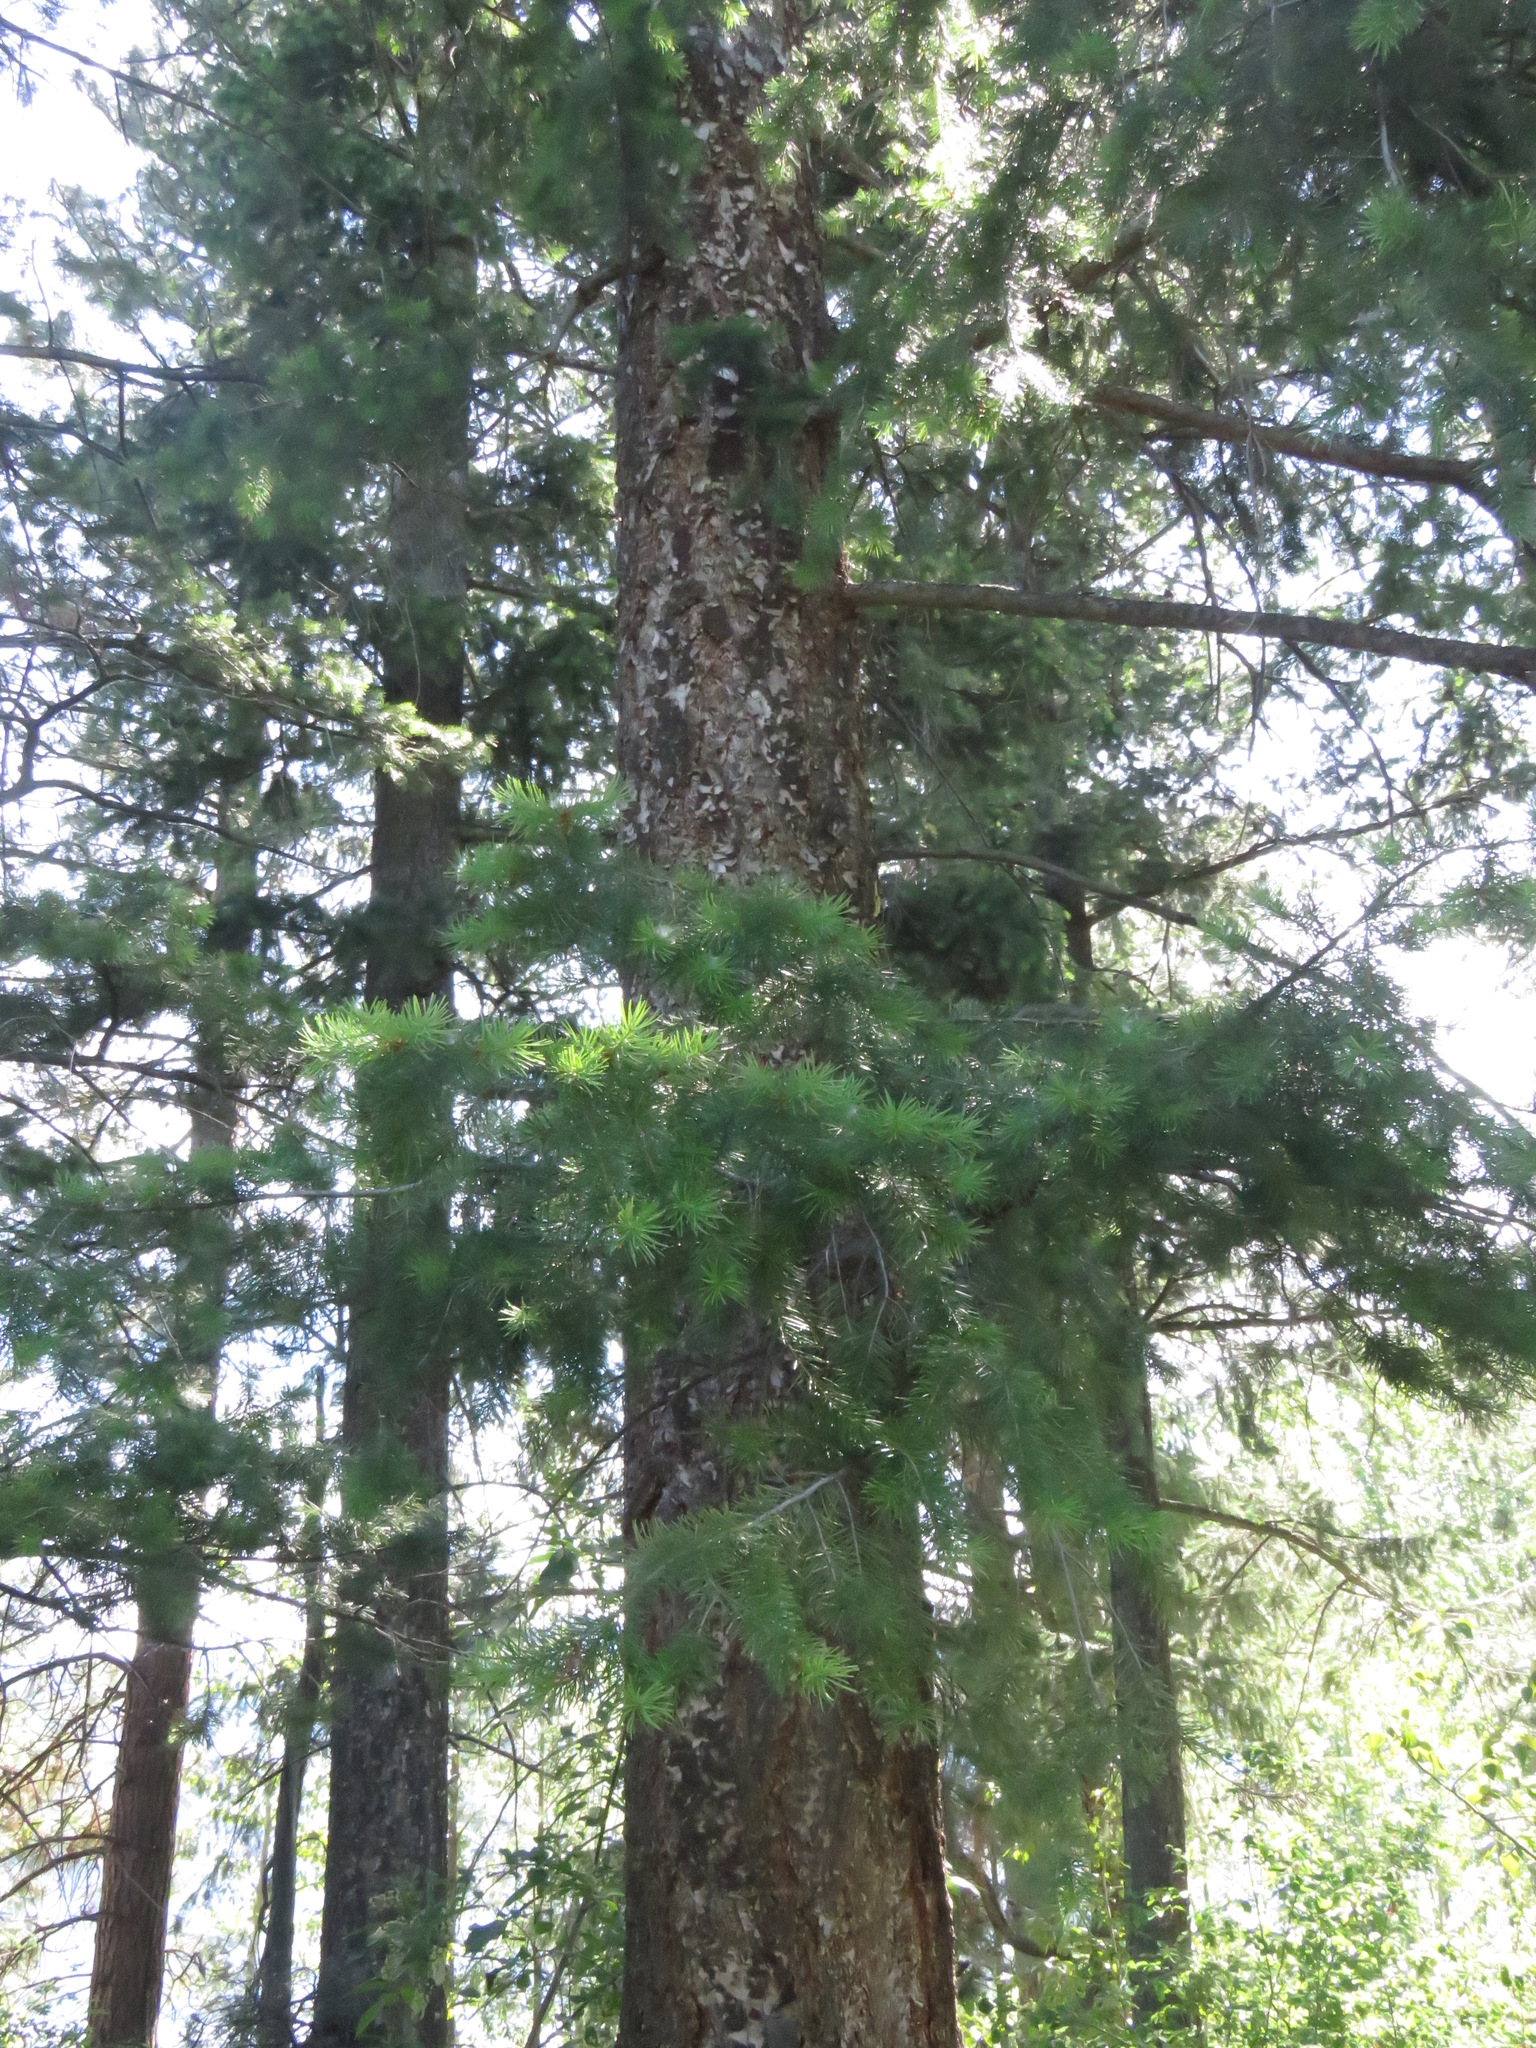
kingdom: Plantae
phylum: Tracheophyta
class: Pinopsida
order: Pinales
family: Pinaceae
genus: Pseudotsuga
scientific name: Pseudotsuga menziesii
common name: Douglas fir
